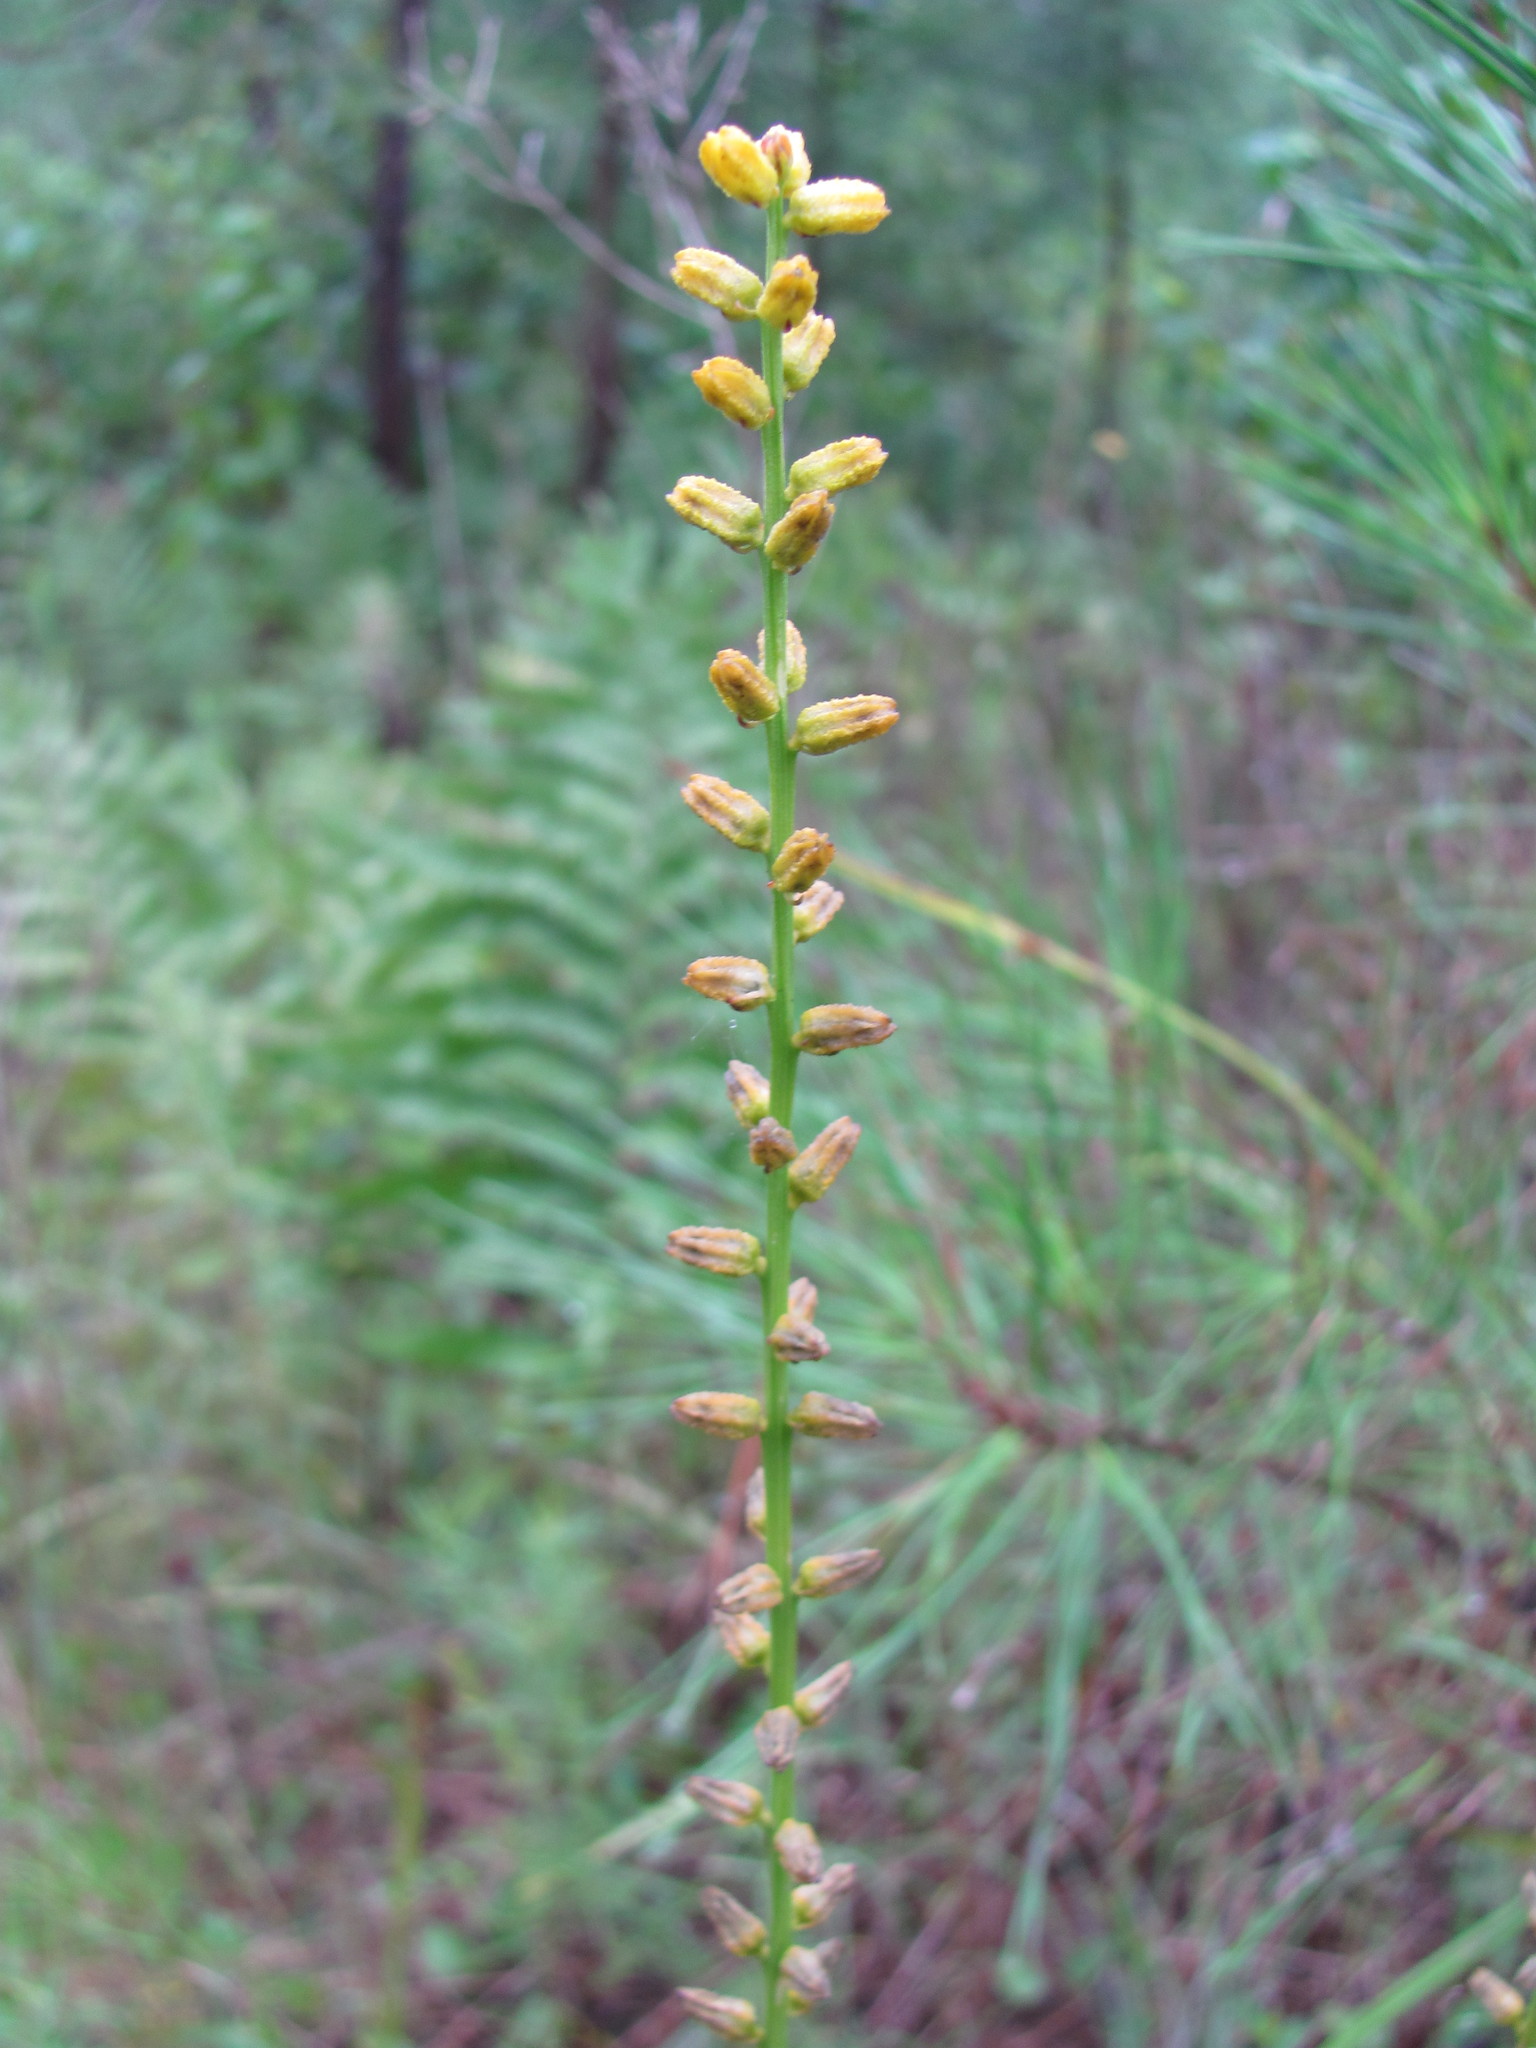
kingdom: Plantae
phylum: Tracheophyta
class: Liliopsida
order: Dioscoreales
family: Nartheciaceae
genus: Aletris
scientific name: Aletris aurea
